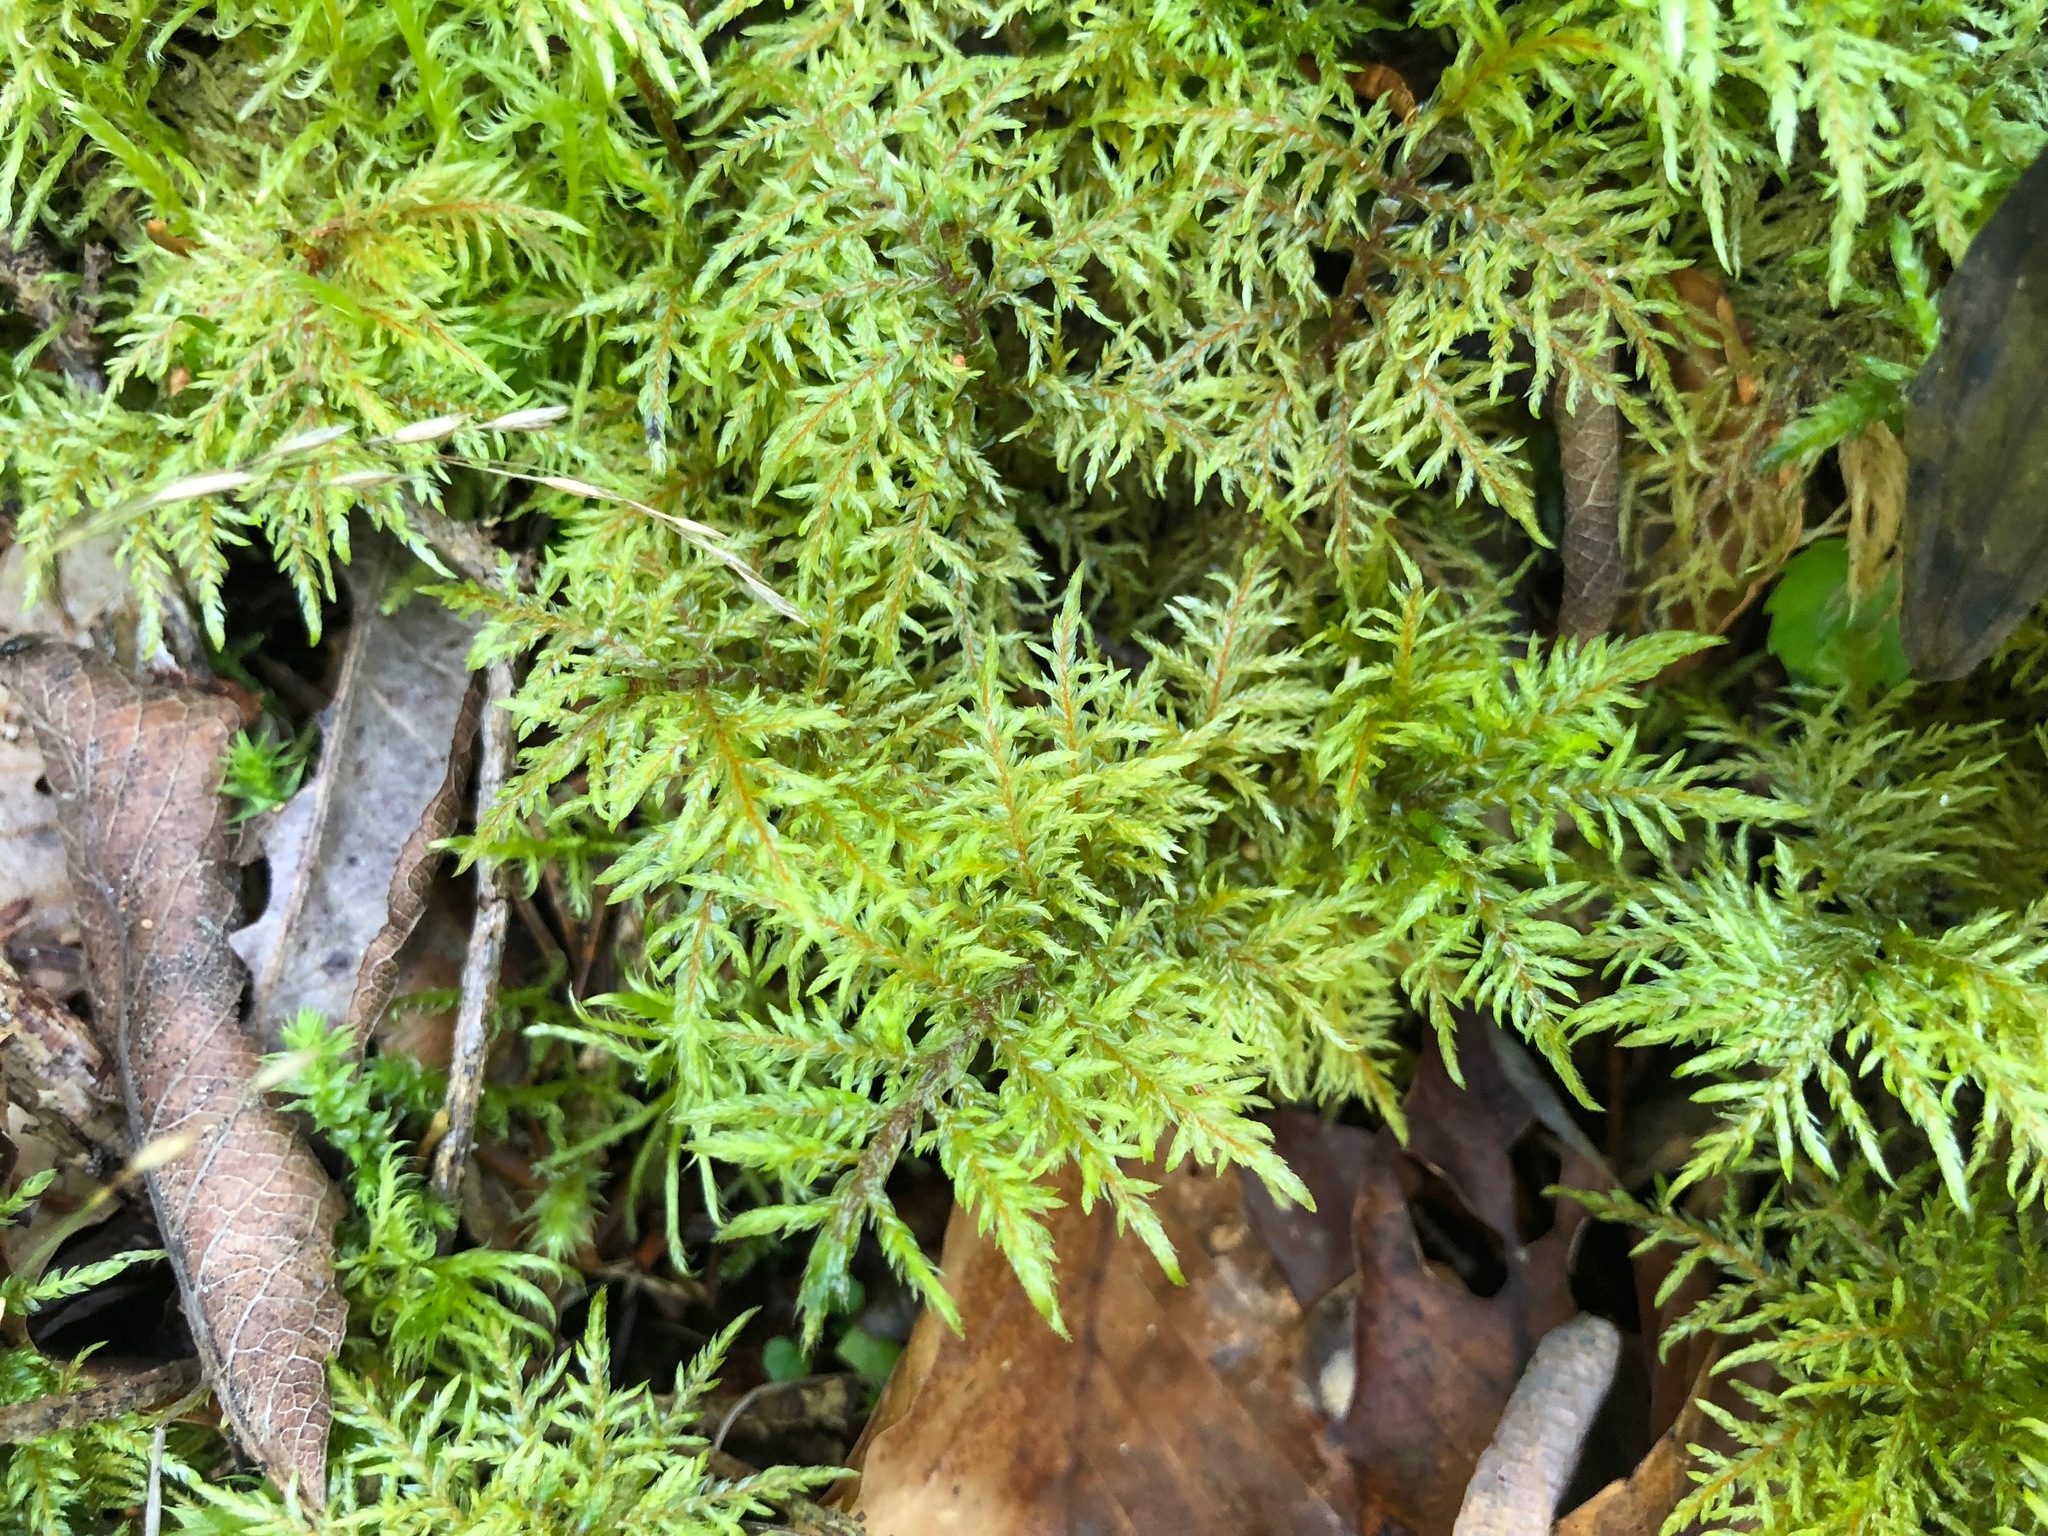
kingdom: Plantae
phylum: Bryophyta
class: Bryopsida
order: Hypnales
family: Hylocomiaceae
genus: Hylocomium
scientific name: Hylocomium splendens
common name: Stairstep moss
